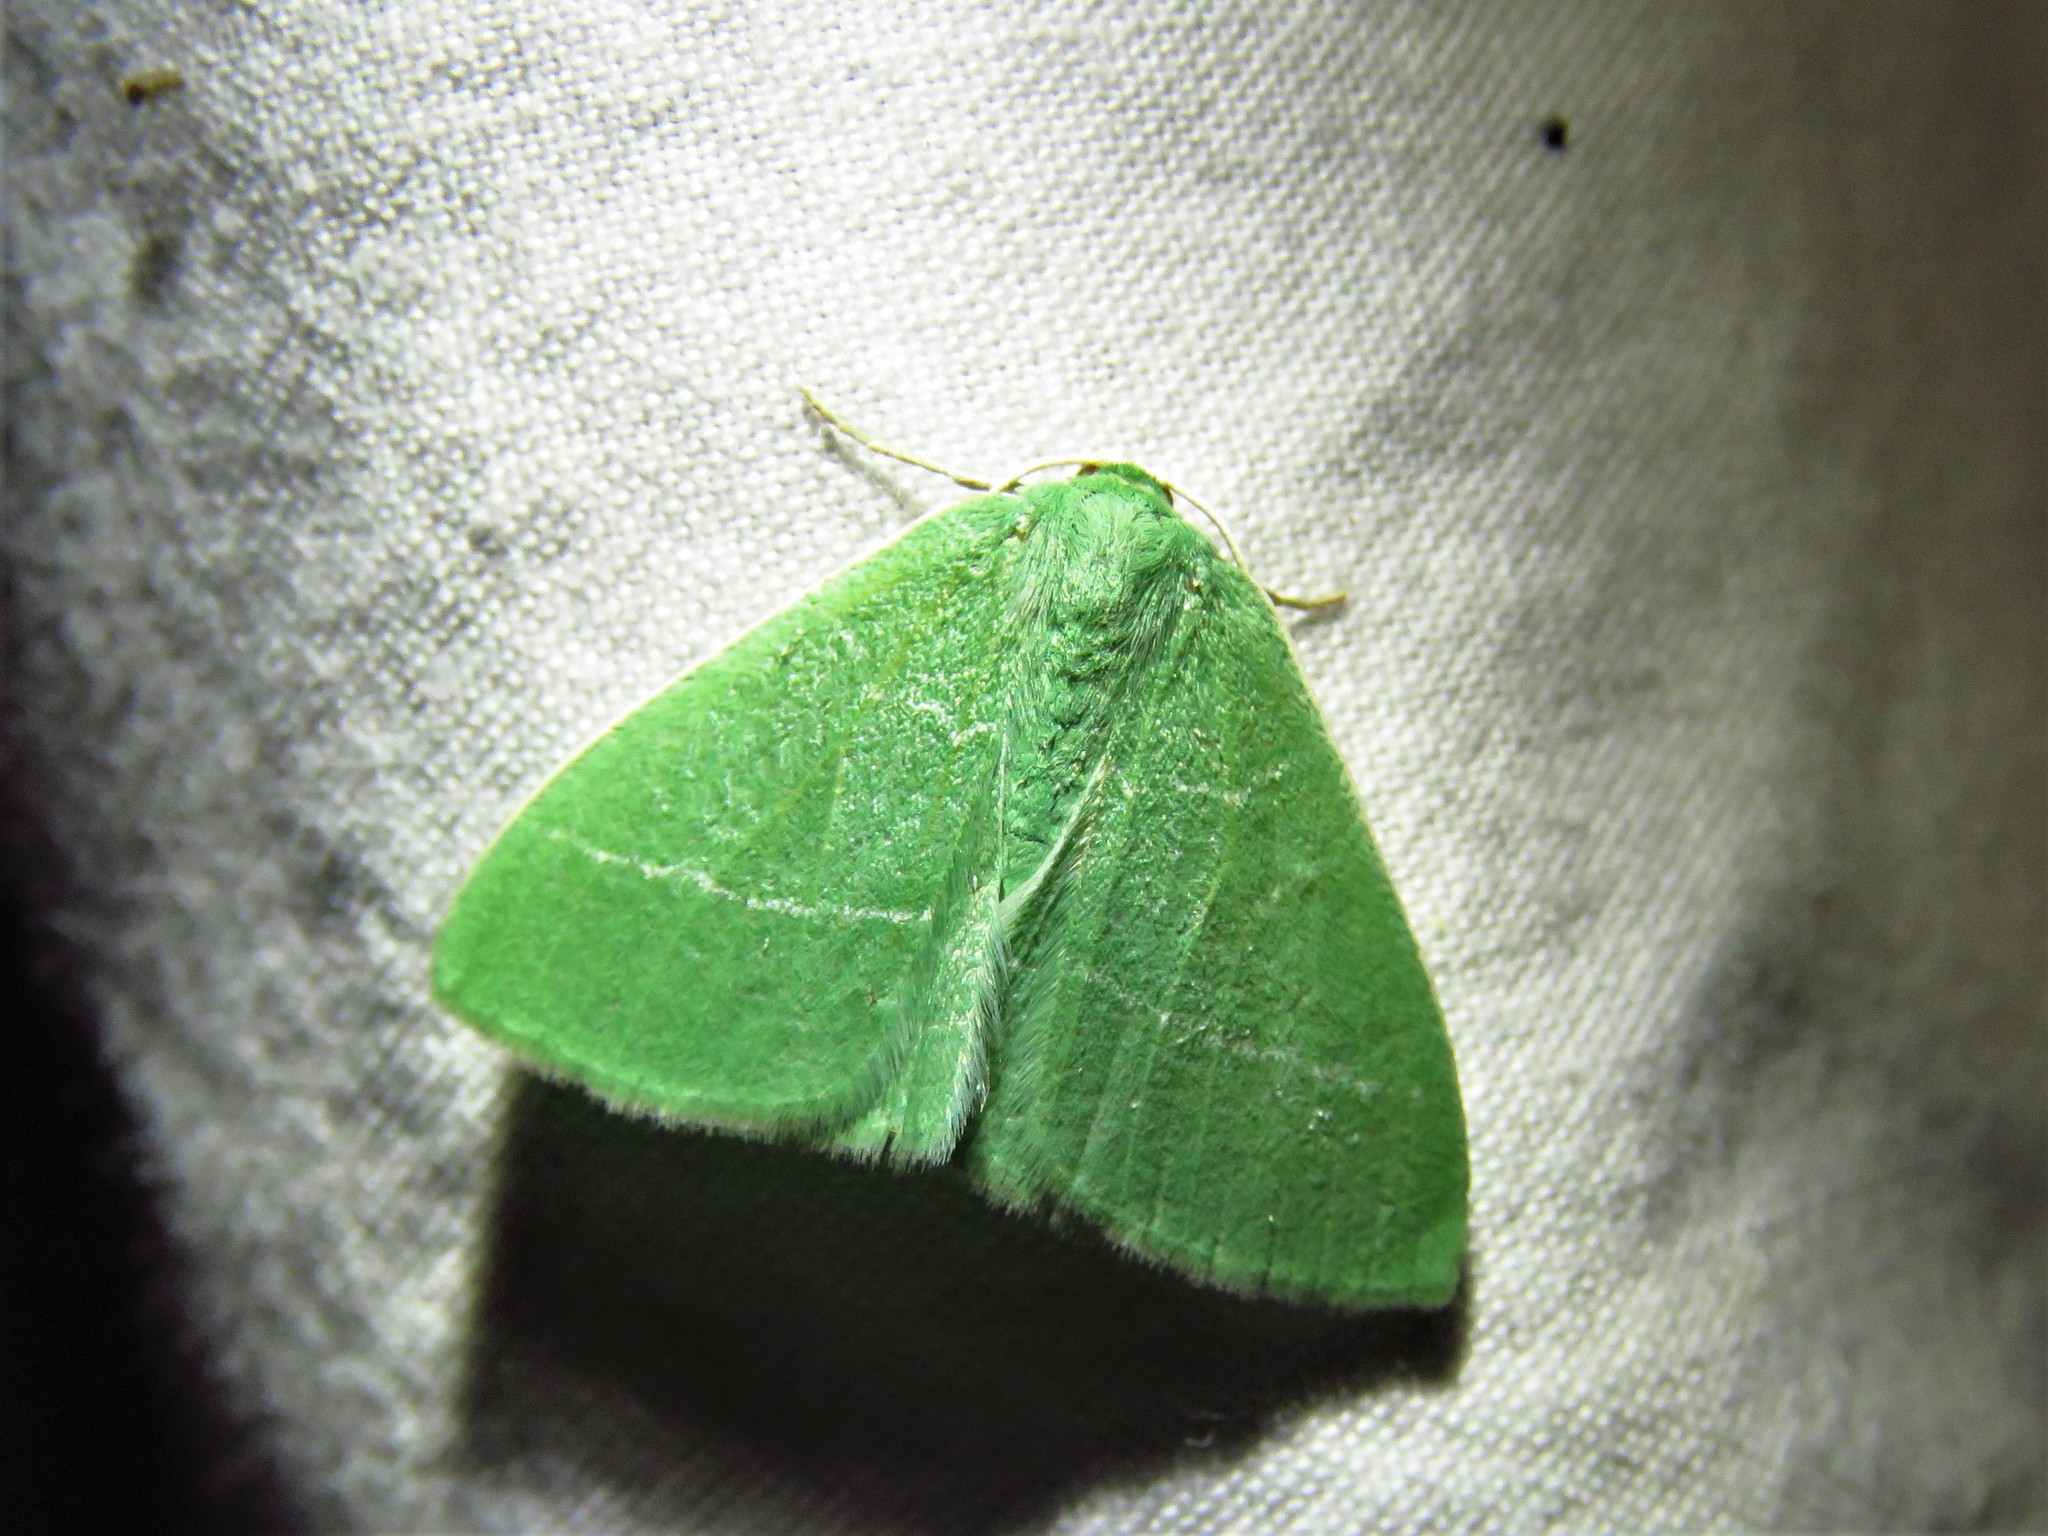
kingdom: Animalia
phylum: Arthropoda
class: Insecta
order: Lepidoptera
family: Geometridae
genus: Nemoria
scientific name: Nemoria zygotaria
